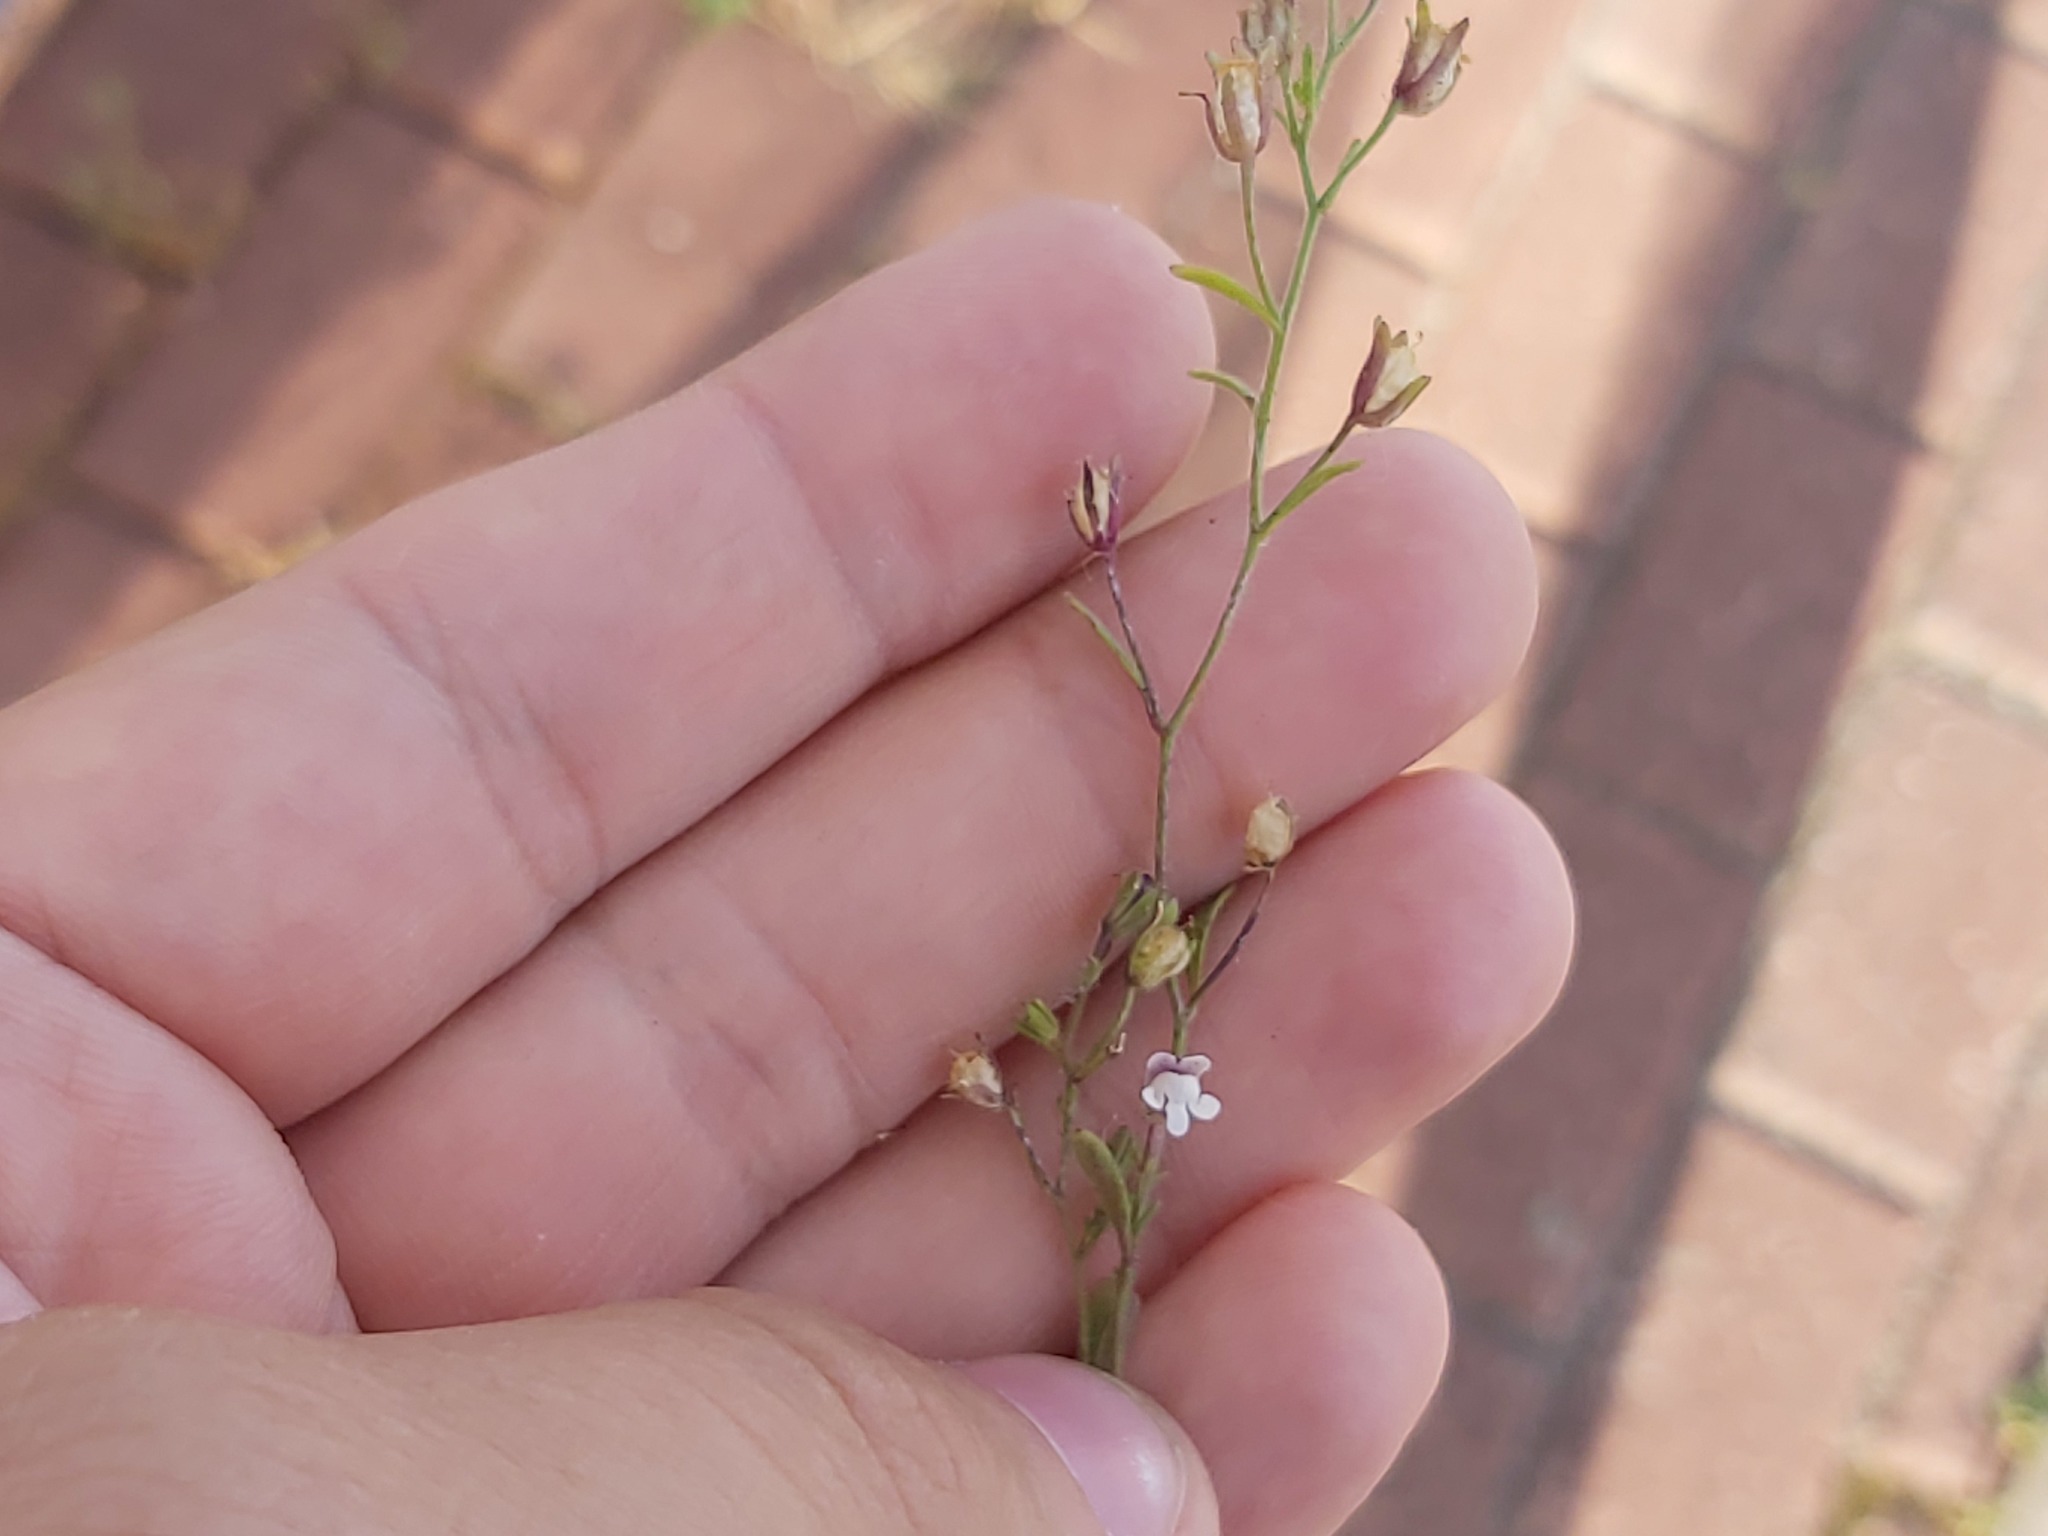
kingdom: Plantae
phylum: Tracheophyta
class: Magnoliopsida
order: Lamiales
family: Plantaginaceae
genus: Chaenorhinum
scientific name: Chaenorhinum minus
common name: Dwarf snapdragon
